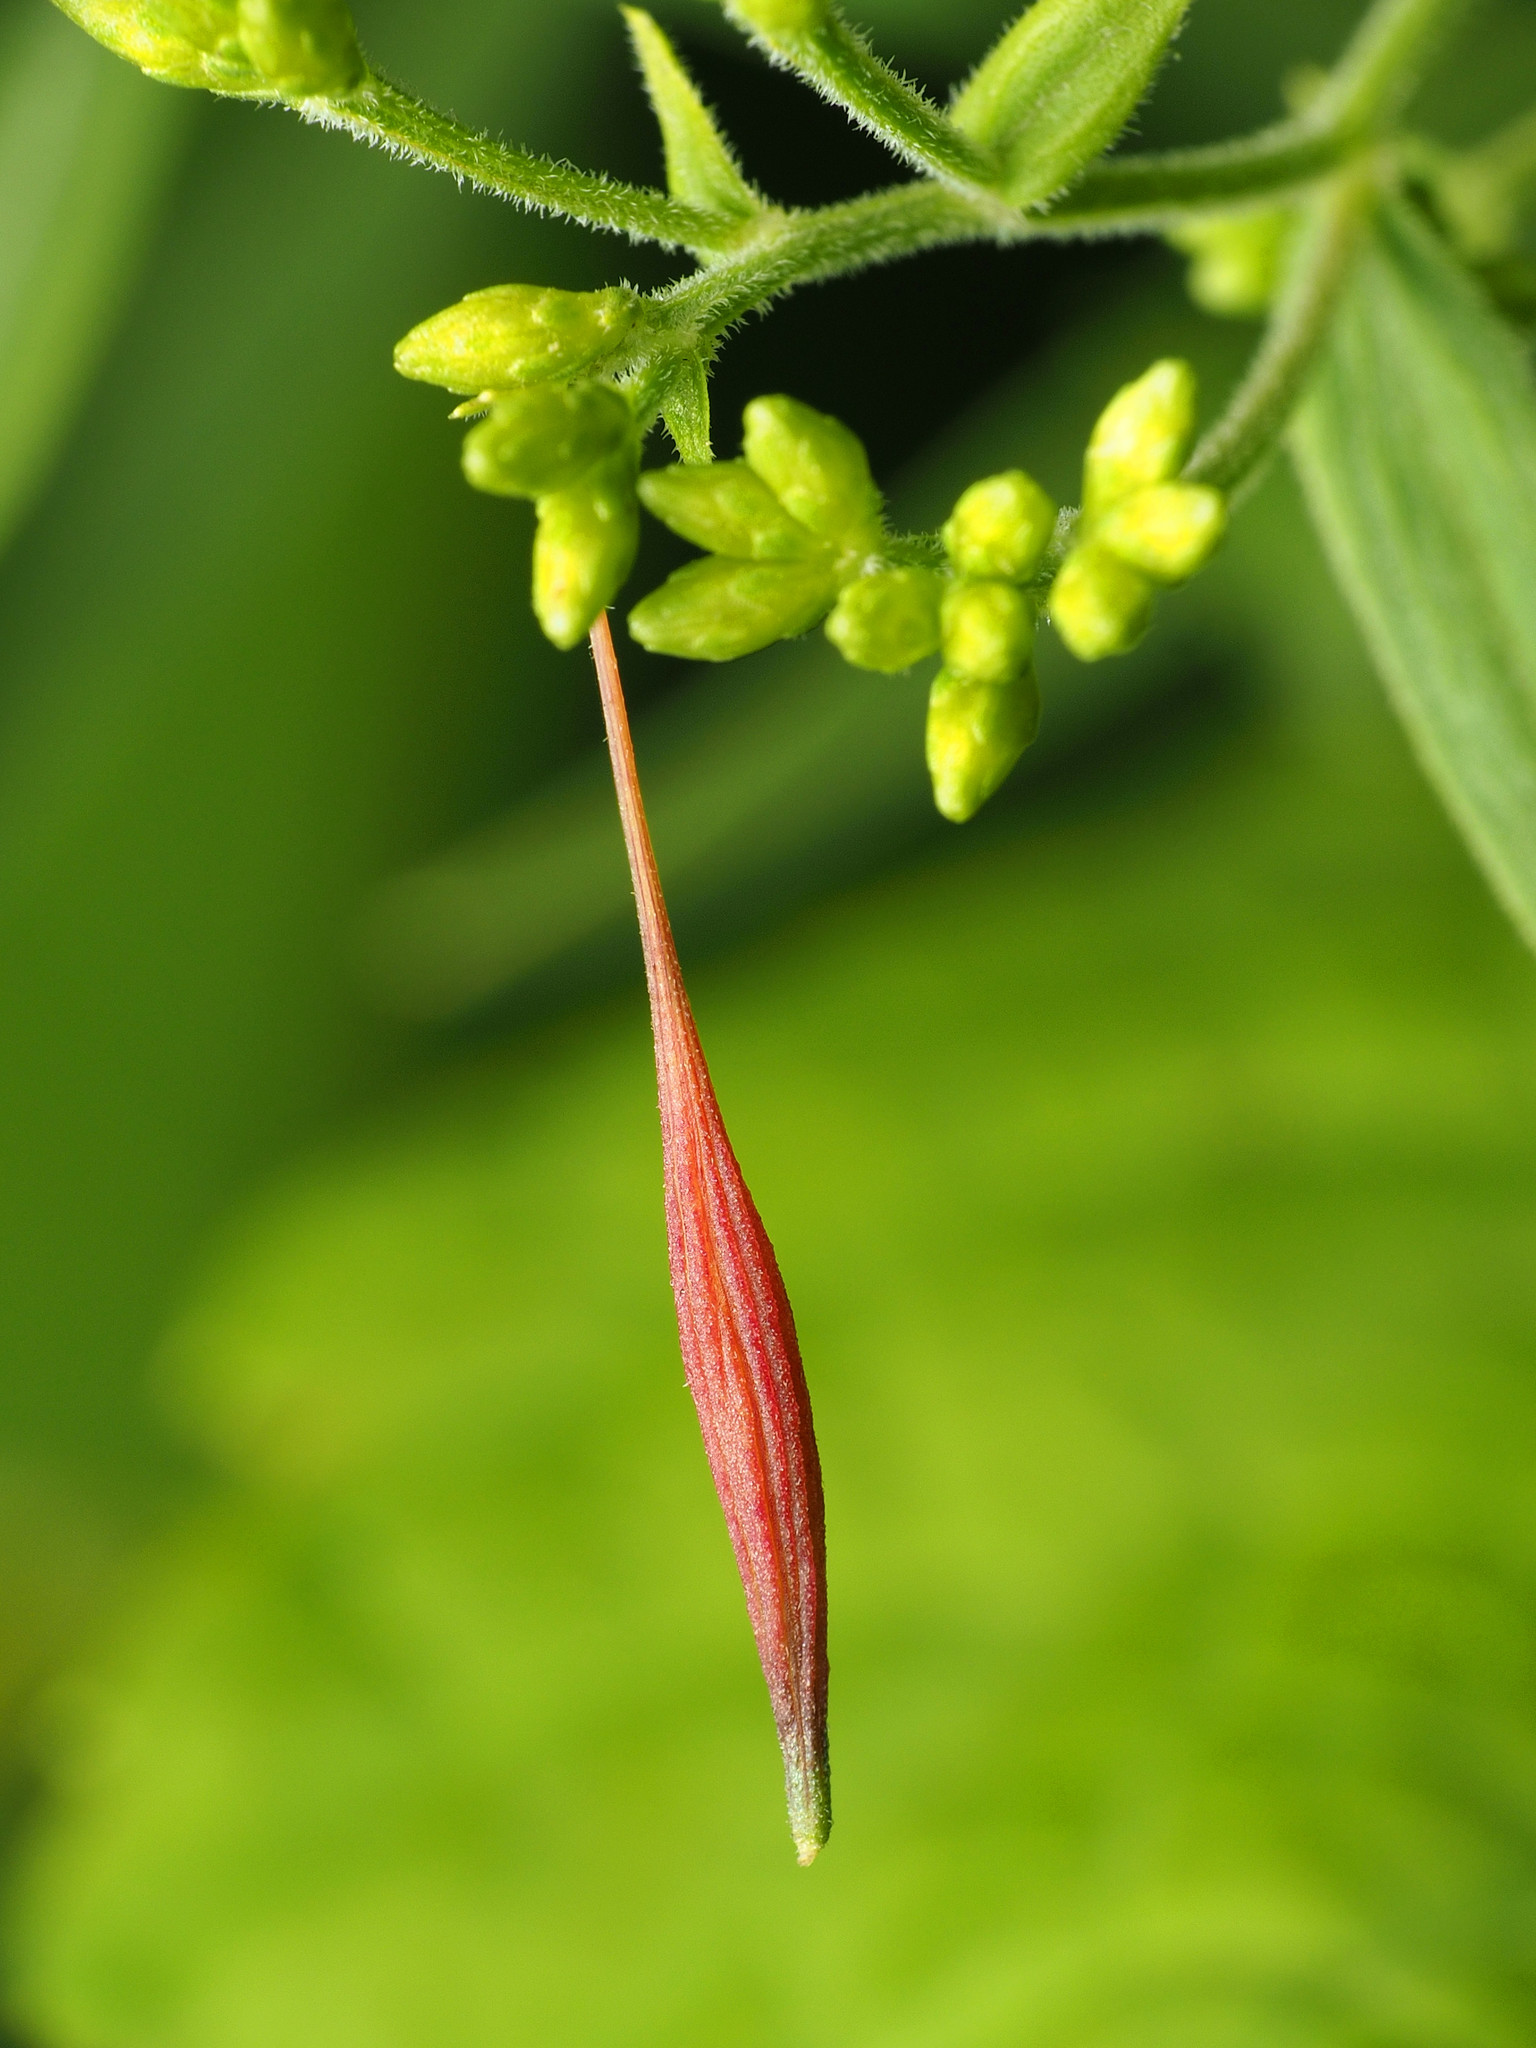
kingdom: Animalia
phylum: Arthropoda
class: Insecta
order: Diptera
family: Cecidomyiidae
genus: Rhopalomyia
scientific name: Rhopalomyia pedicellata
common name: Goldentop pedicellate gall midge
